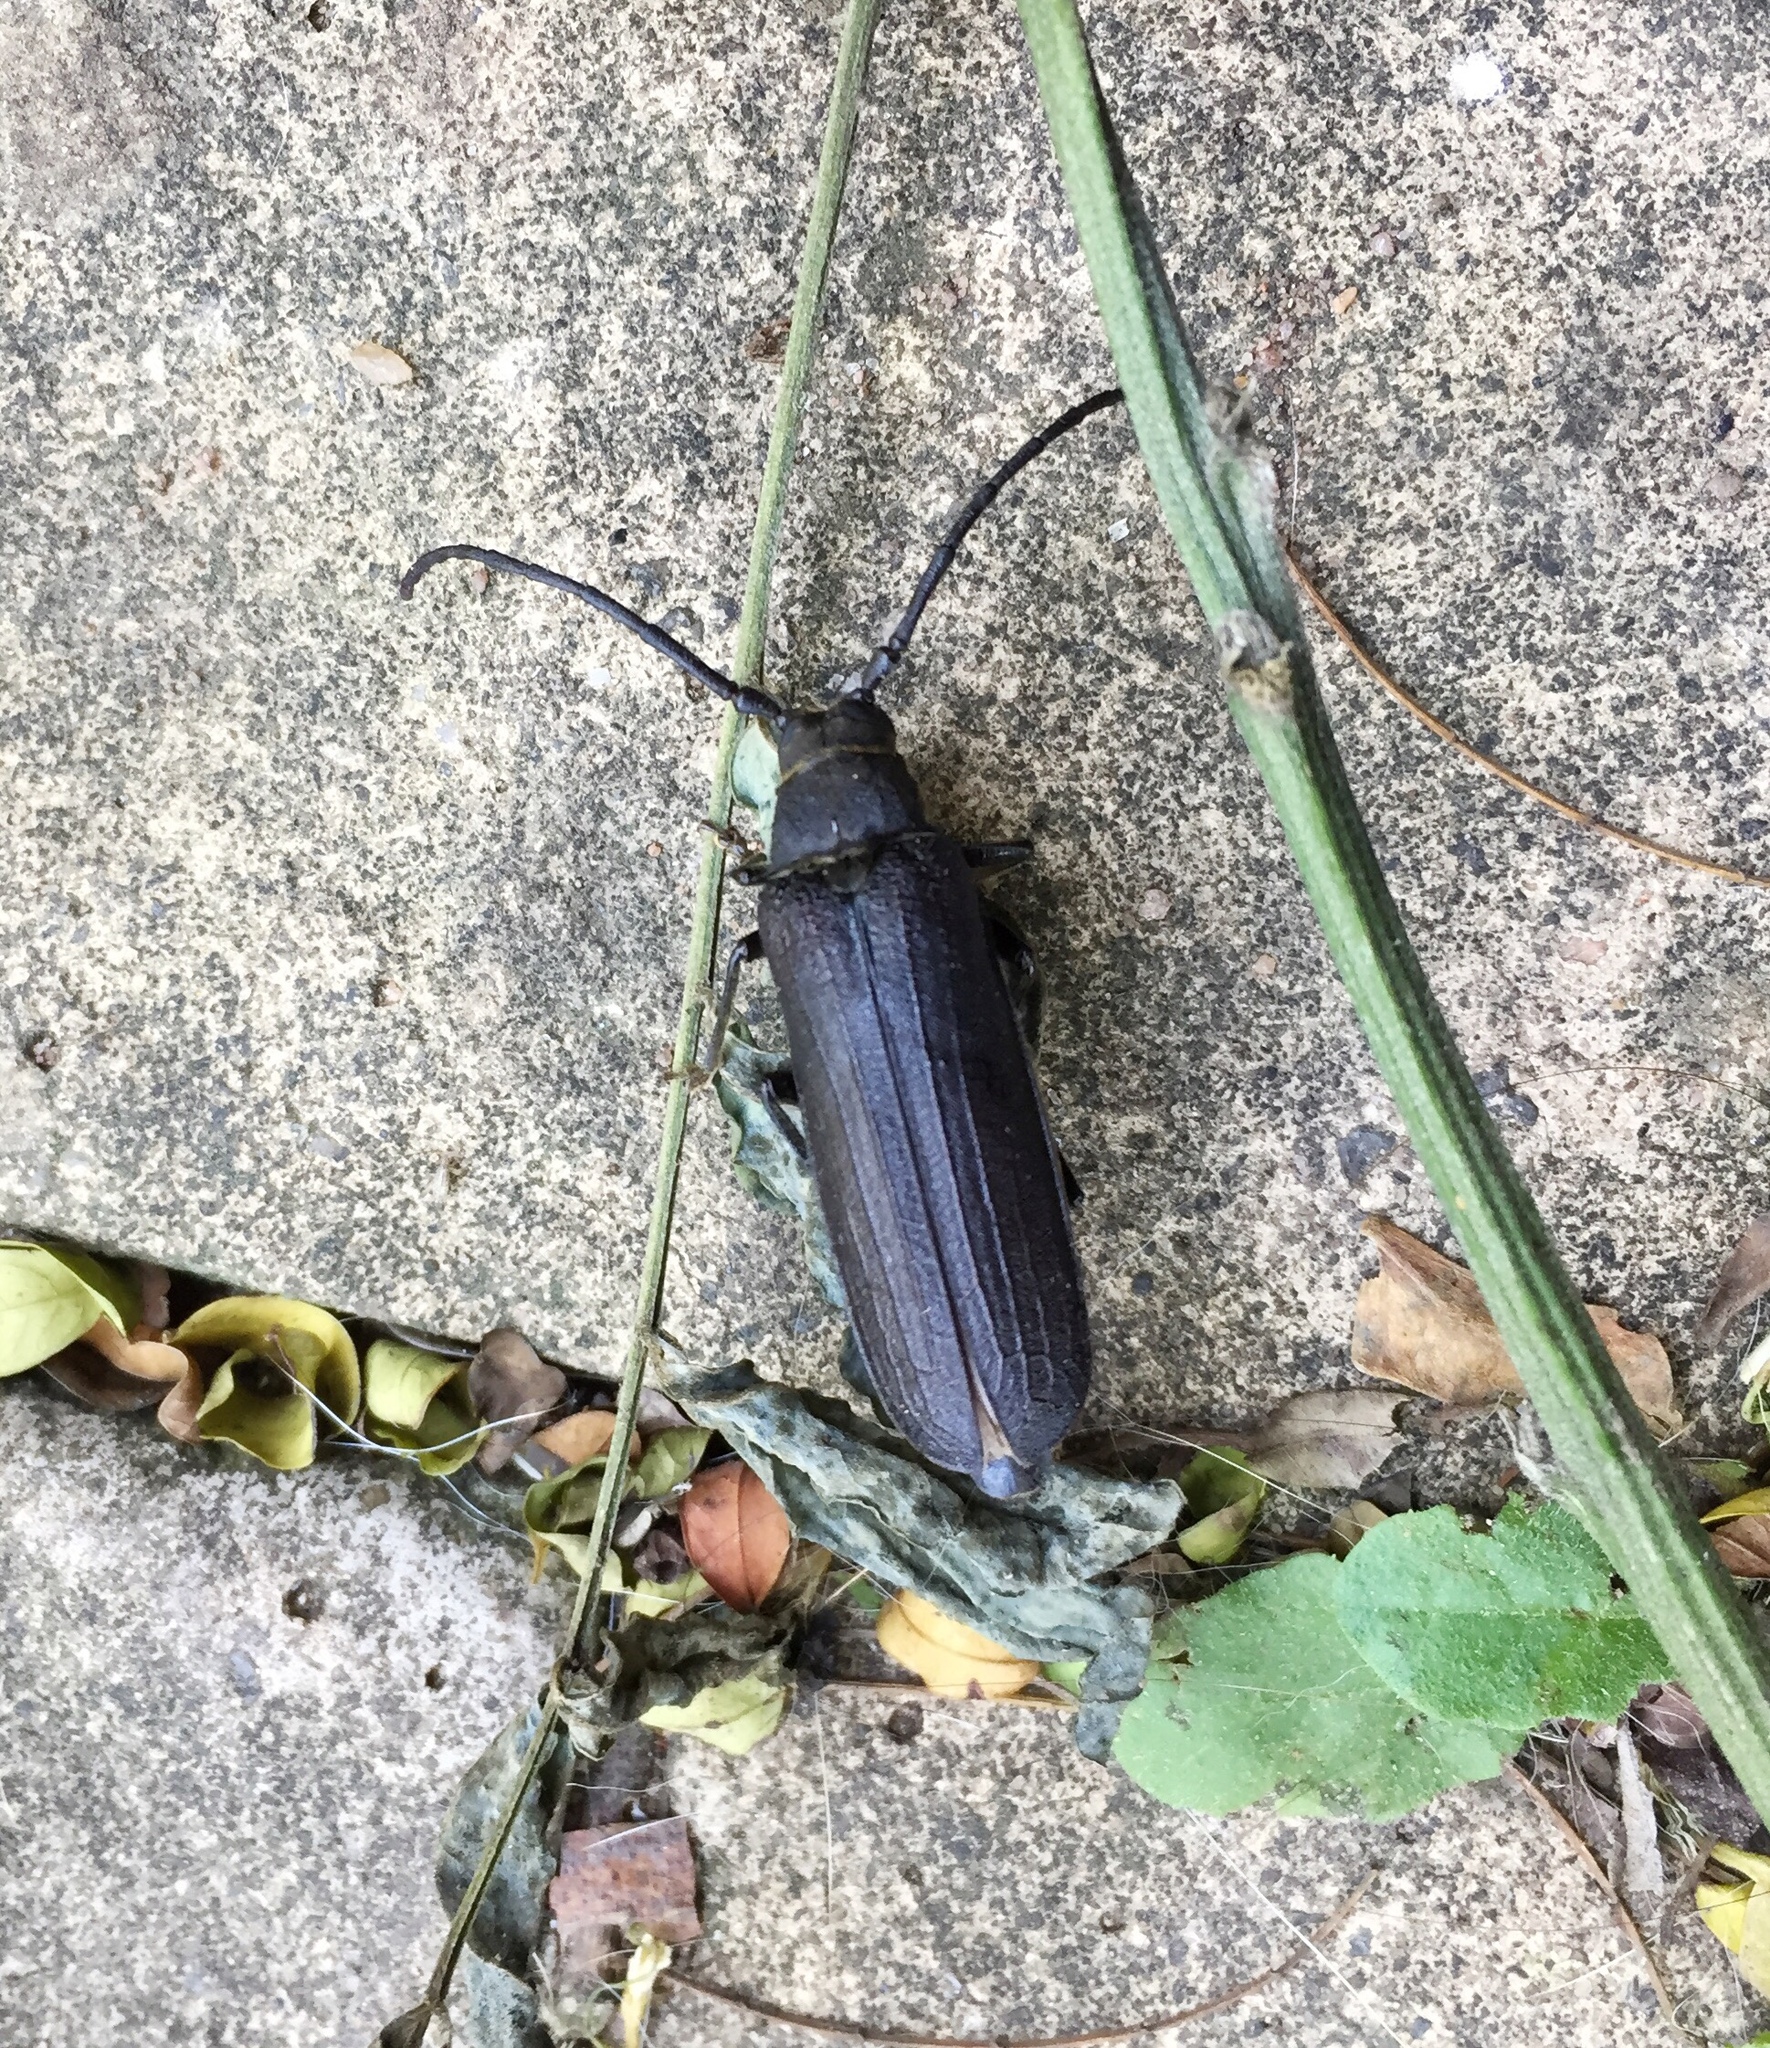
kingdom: Animalia
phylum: Arthropoda
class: Insecta
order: Coleoptera
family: Cerambycidae
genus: Delocheilus
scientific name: Delocheilus obscurus
